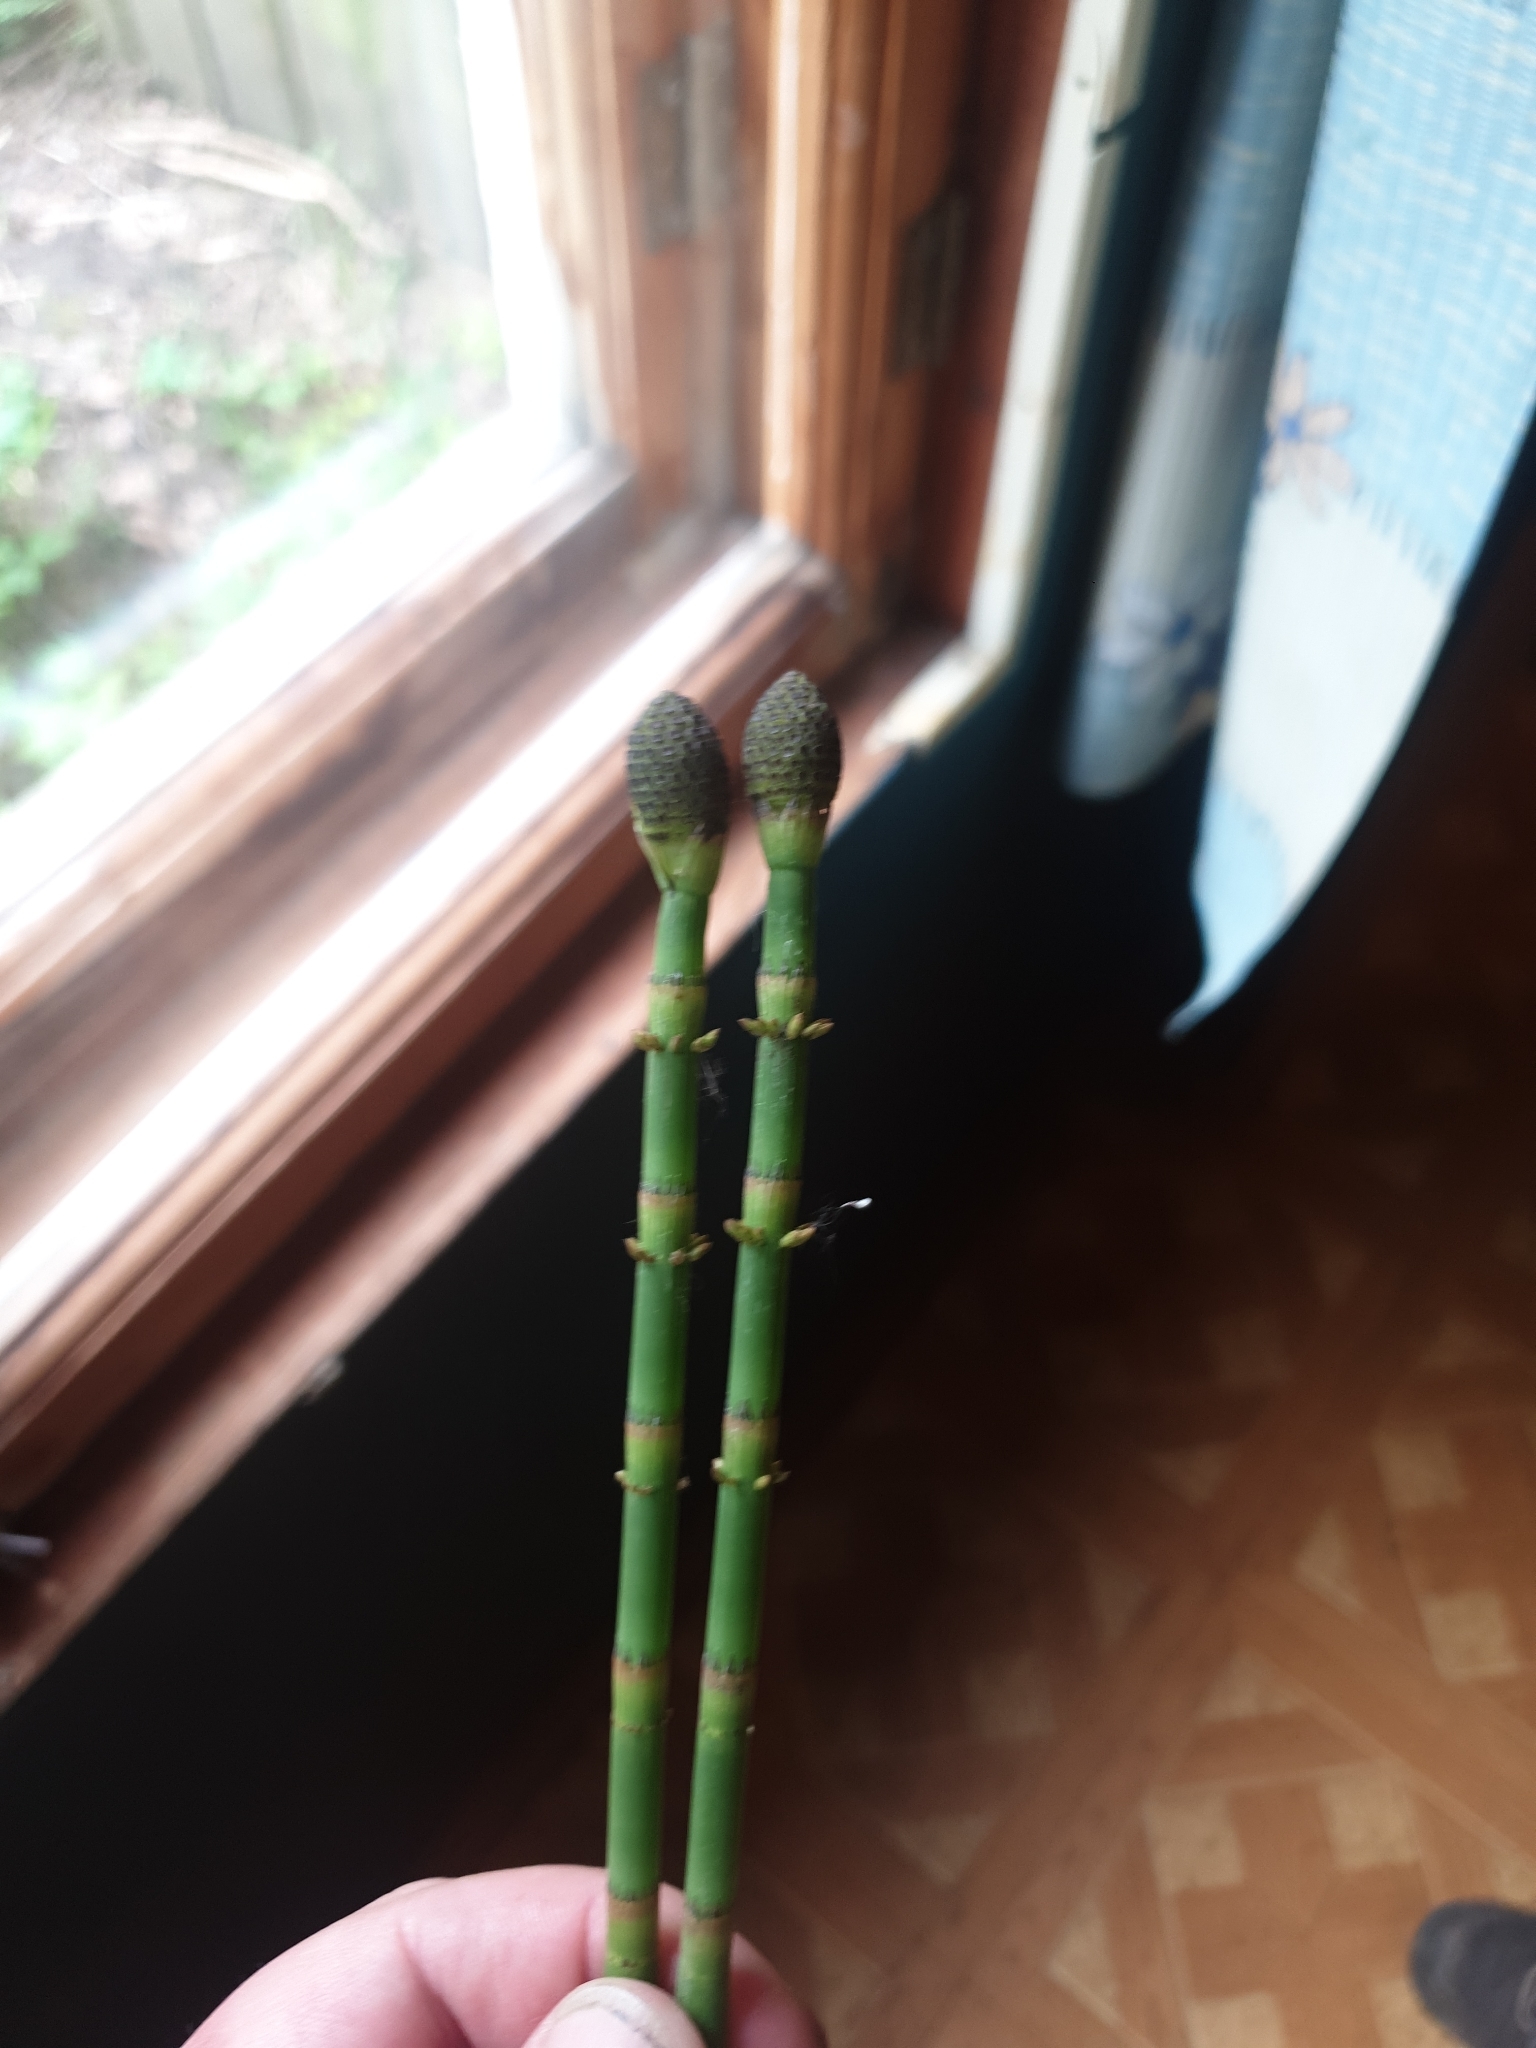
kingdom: Plantae
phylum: Tracheophyta
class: Polypodiopsida
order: Equisetales
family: Equisetaceae
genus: Equisetum
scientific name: Equisetum fluviatile
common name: Water horsetail
